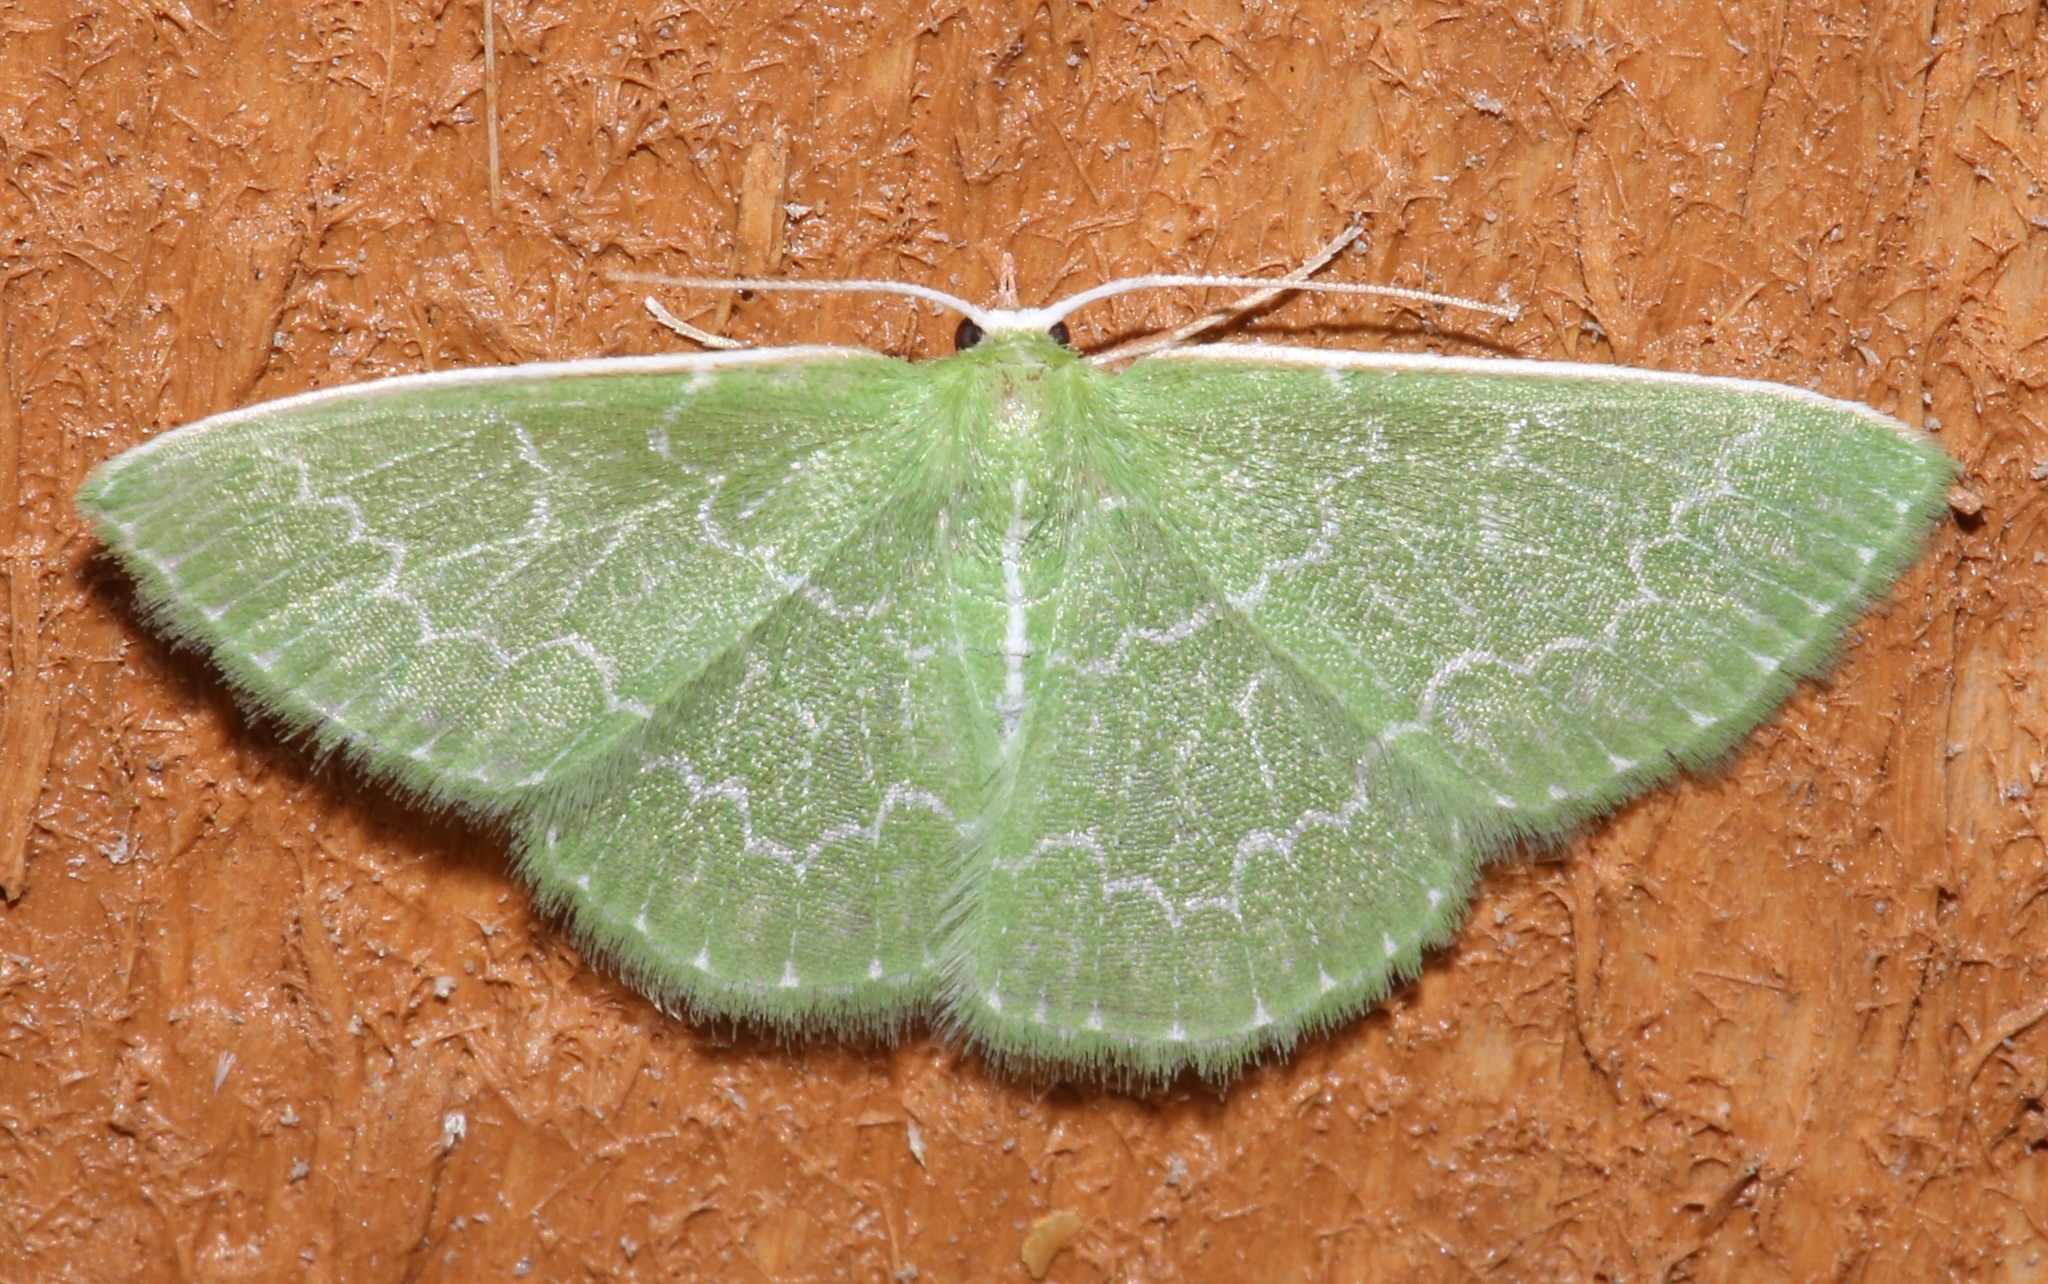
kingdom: Animalia
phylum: Arthropoda
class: Insecta
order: Lepidoptera
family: Geometridae
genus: Synchlora
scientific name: Synchlora frondaria
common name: Southern emerald
